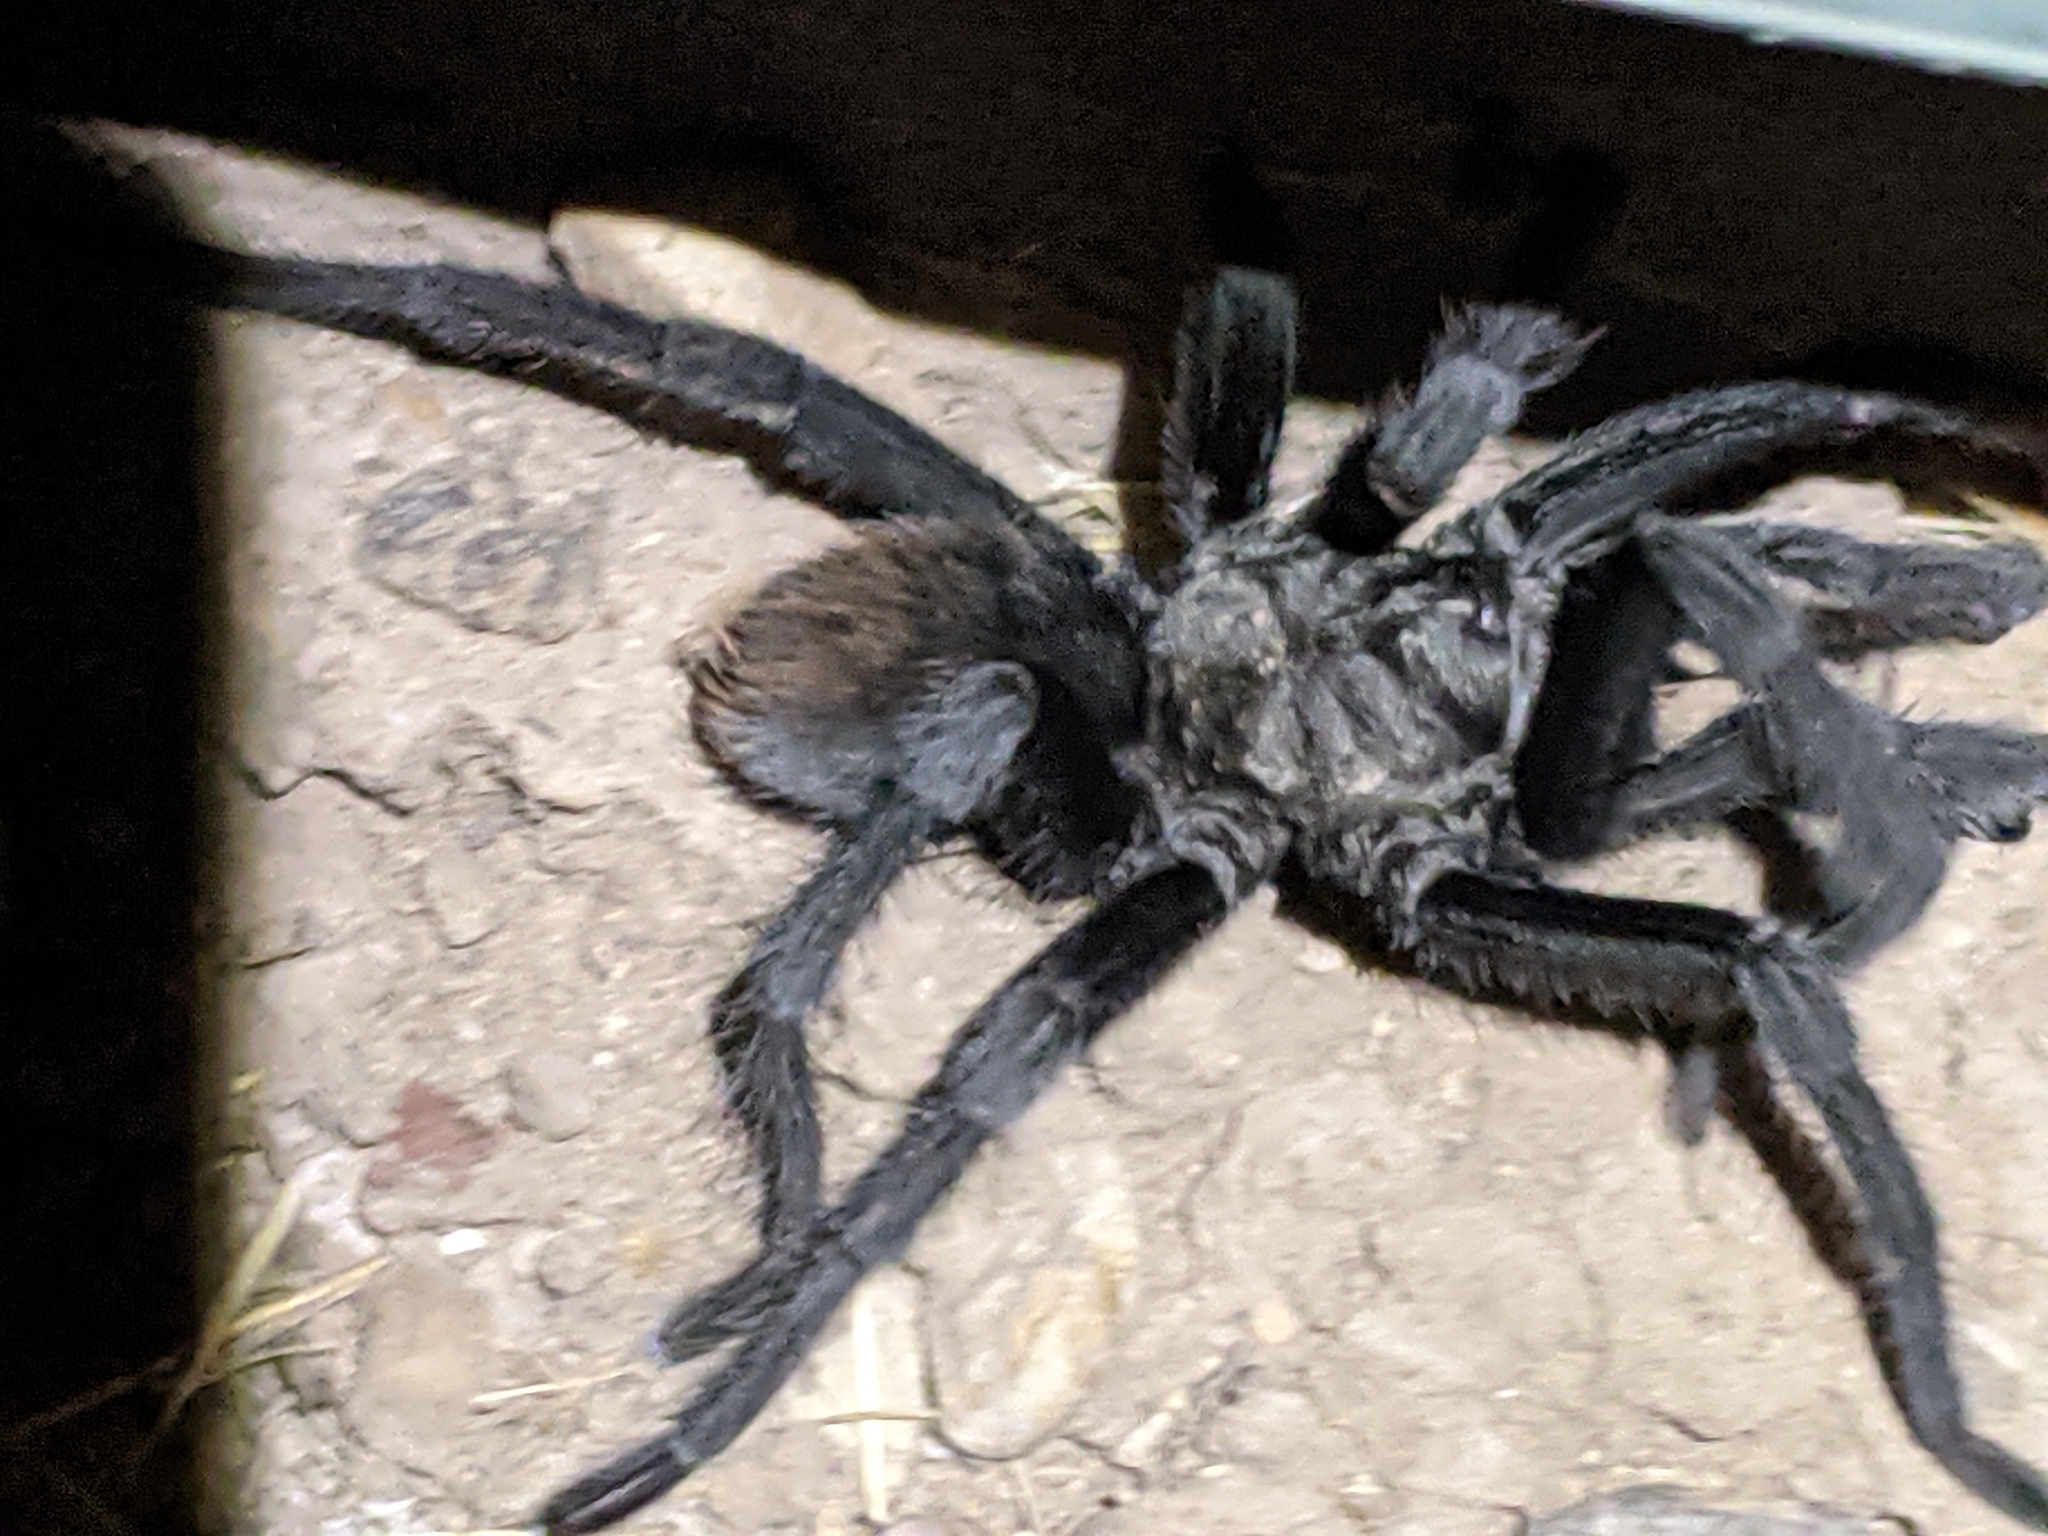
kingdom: Animalia
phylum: Arthropoda
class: Arachnida
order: Araneae
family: Theraphosidae
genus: Aphonopelma
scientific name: Aphonopelma gabeli
